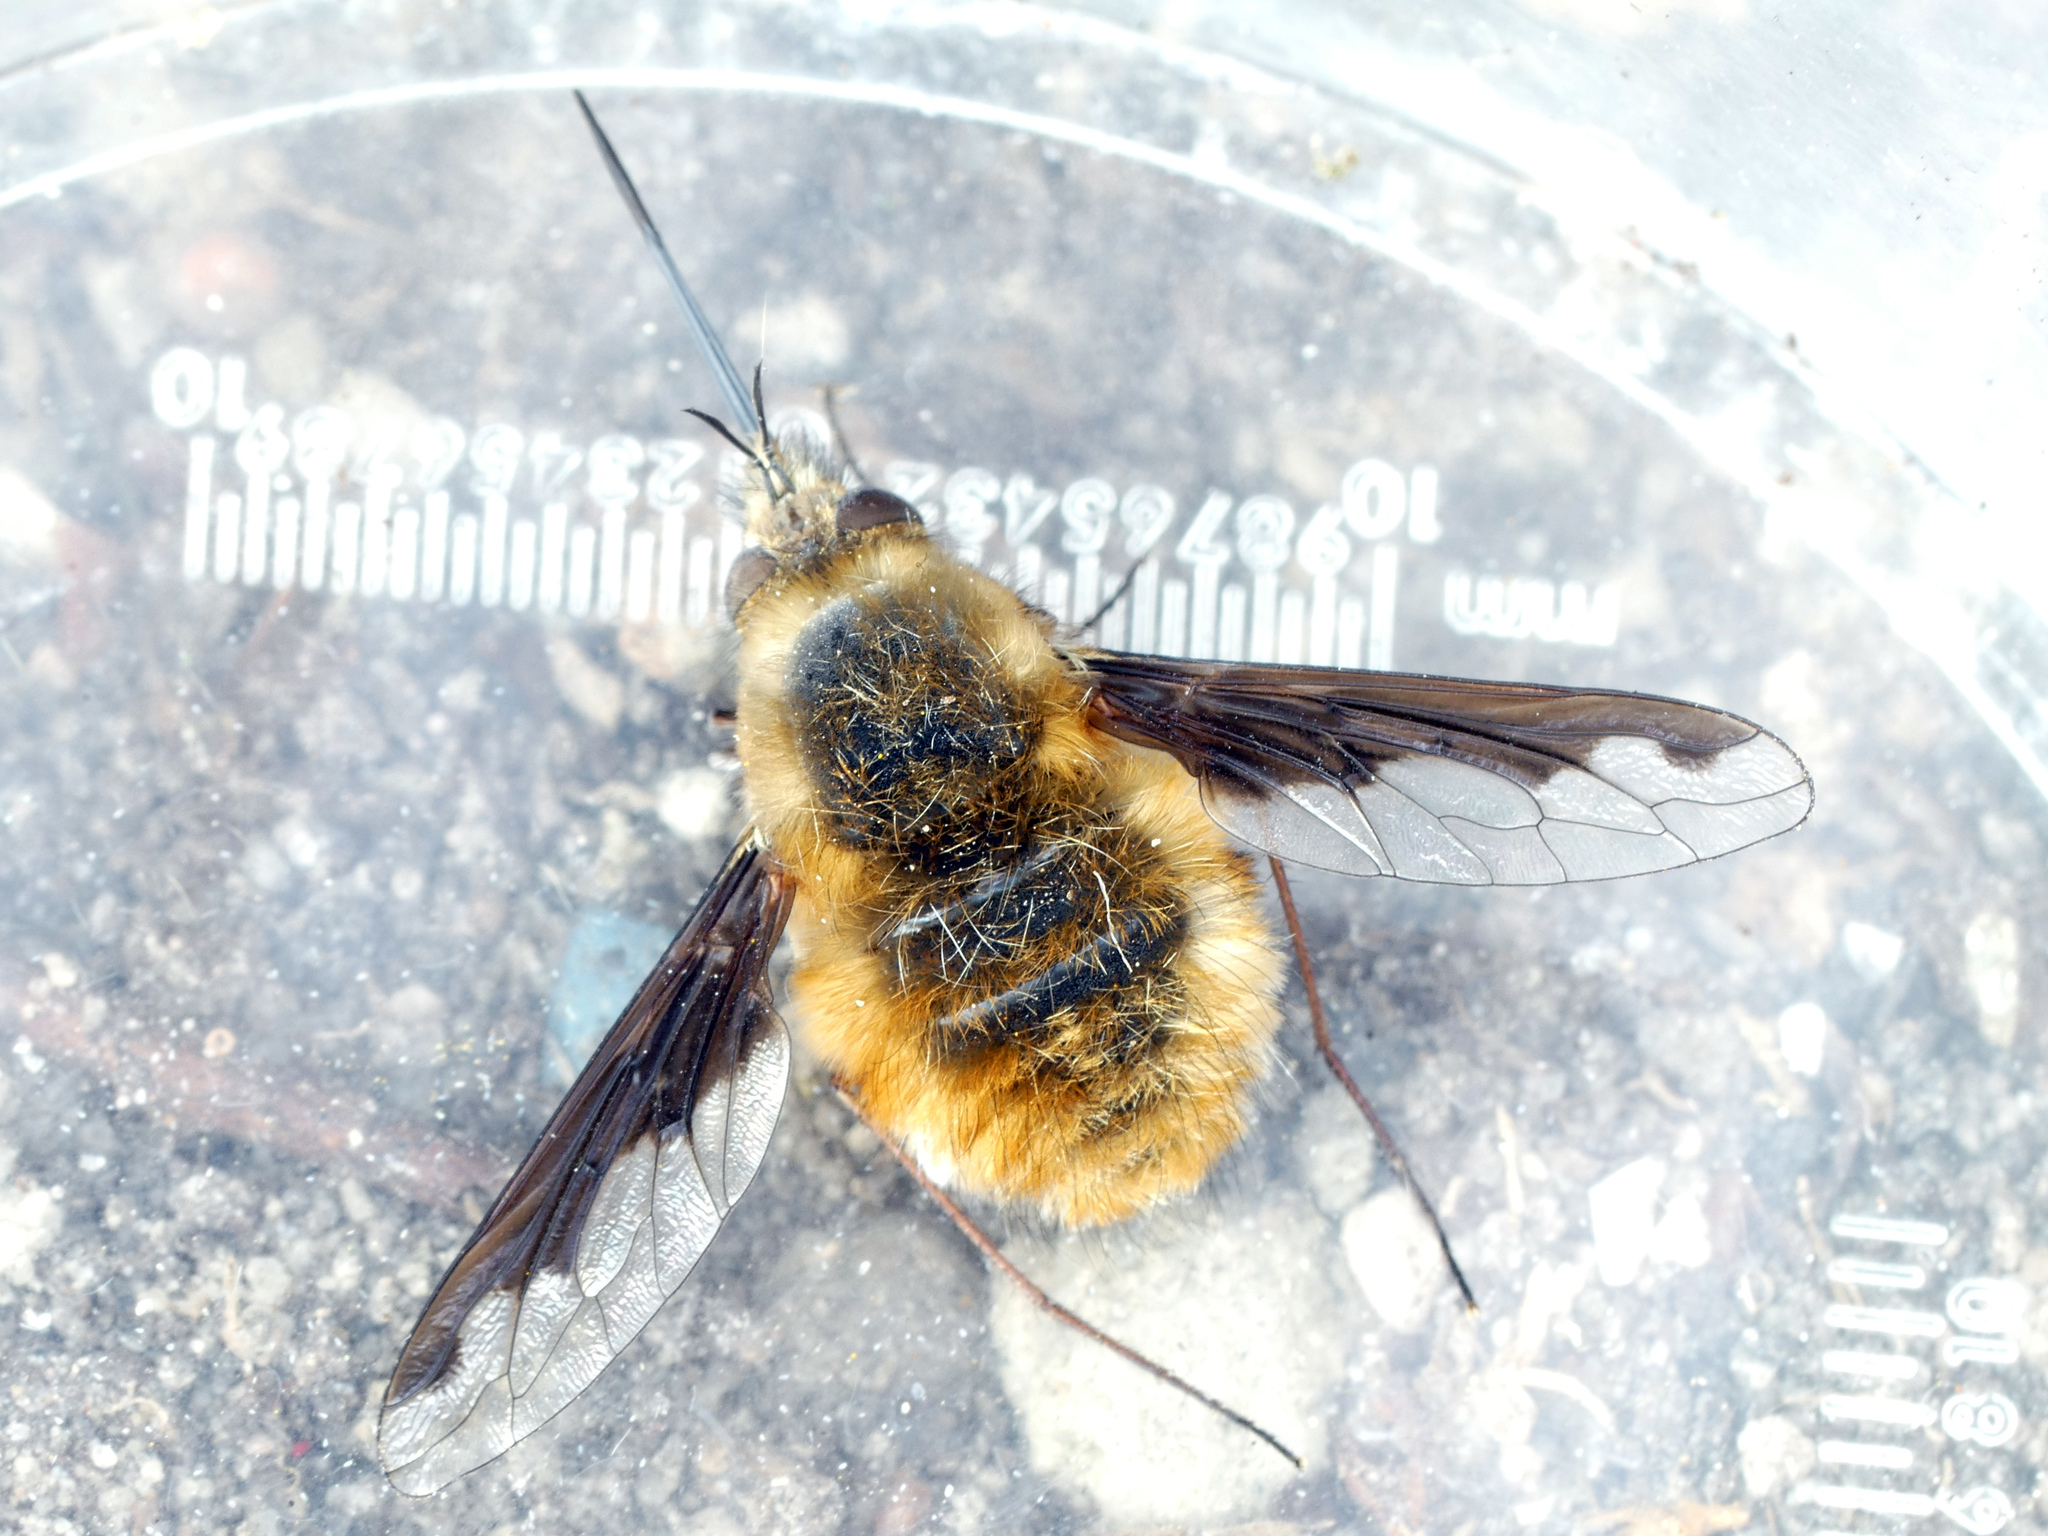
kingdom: Animalia
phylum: Arthropoda
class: Insecta
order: Diptera
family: Bombyliidae
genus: Bombylius
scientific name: Bombylius major
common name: Bee fly
